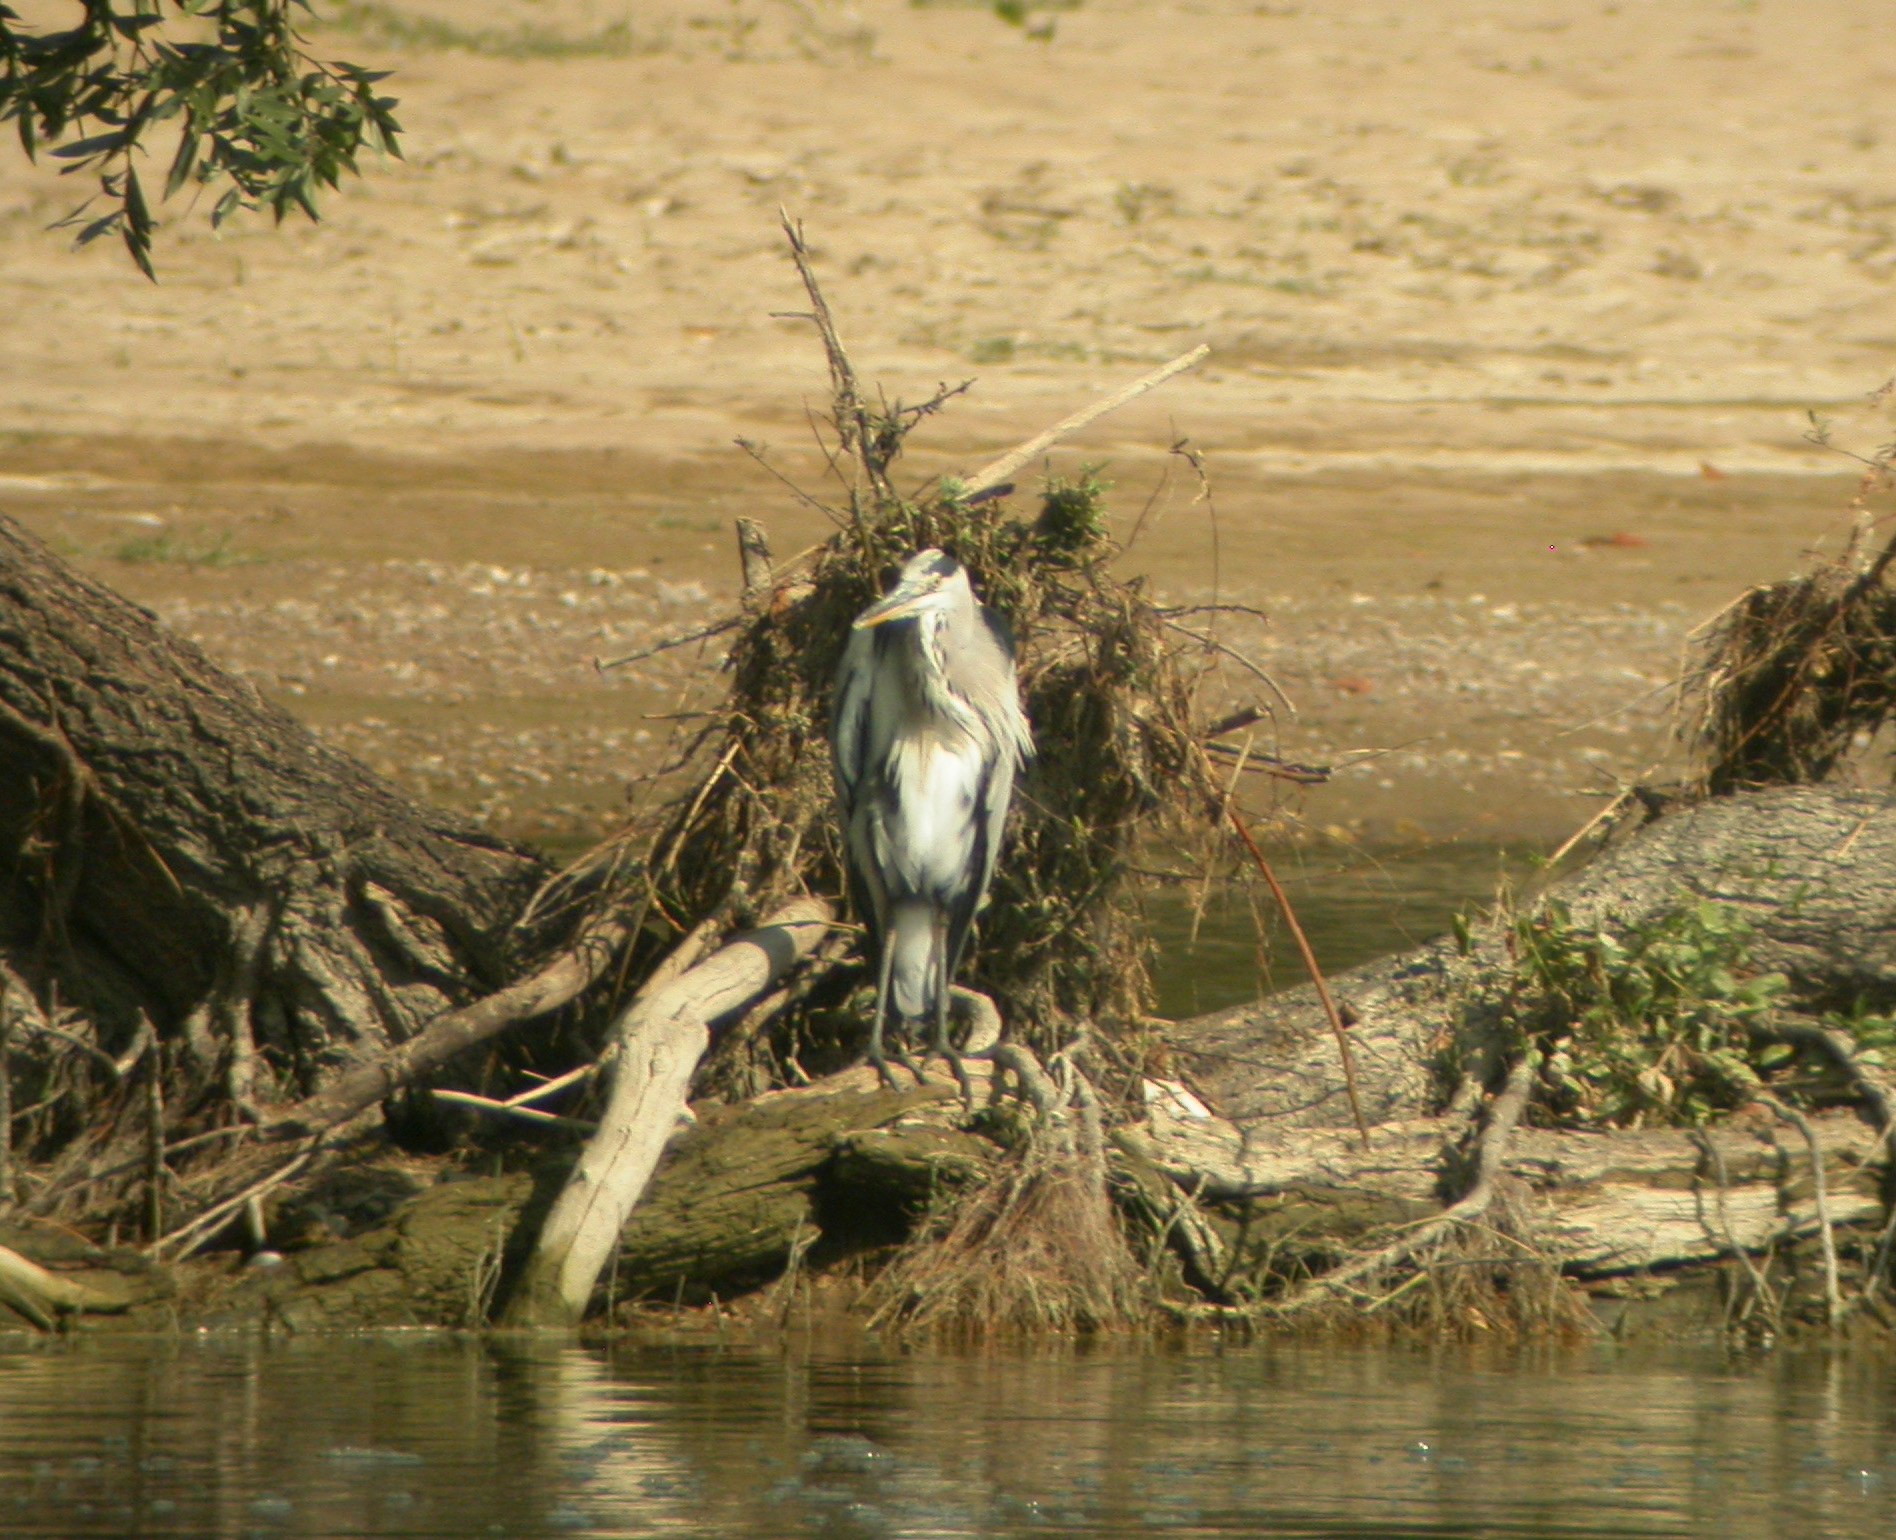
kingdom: Animalia
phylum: Chordata
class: Aves
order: Pelecaniformes
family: Ardeidae
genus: Ardea
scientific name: Ardea cinerea
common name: Grey heron
